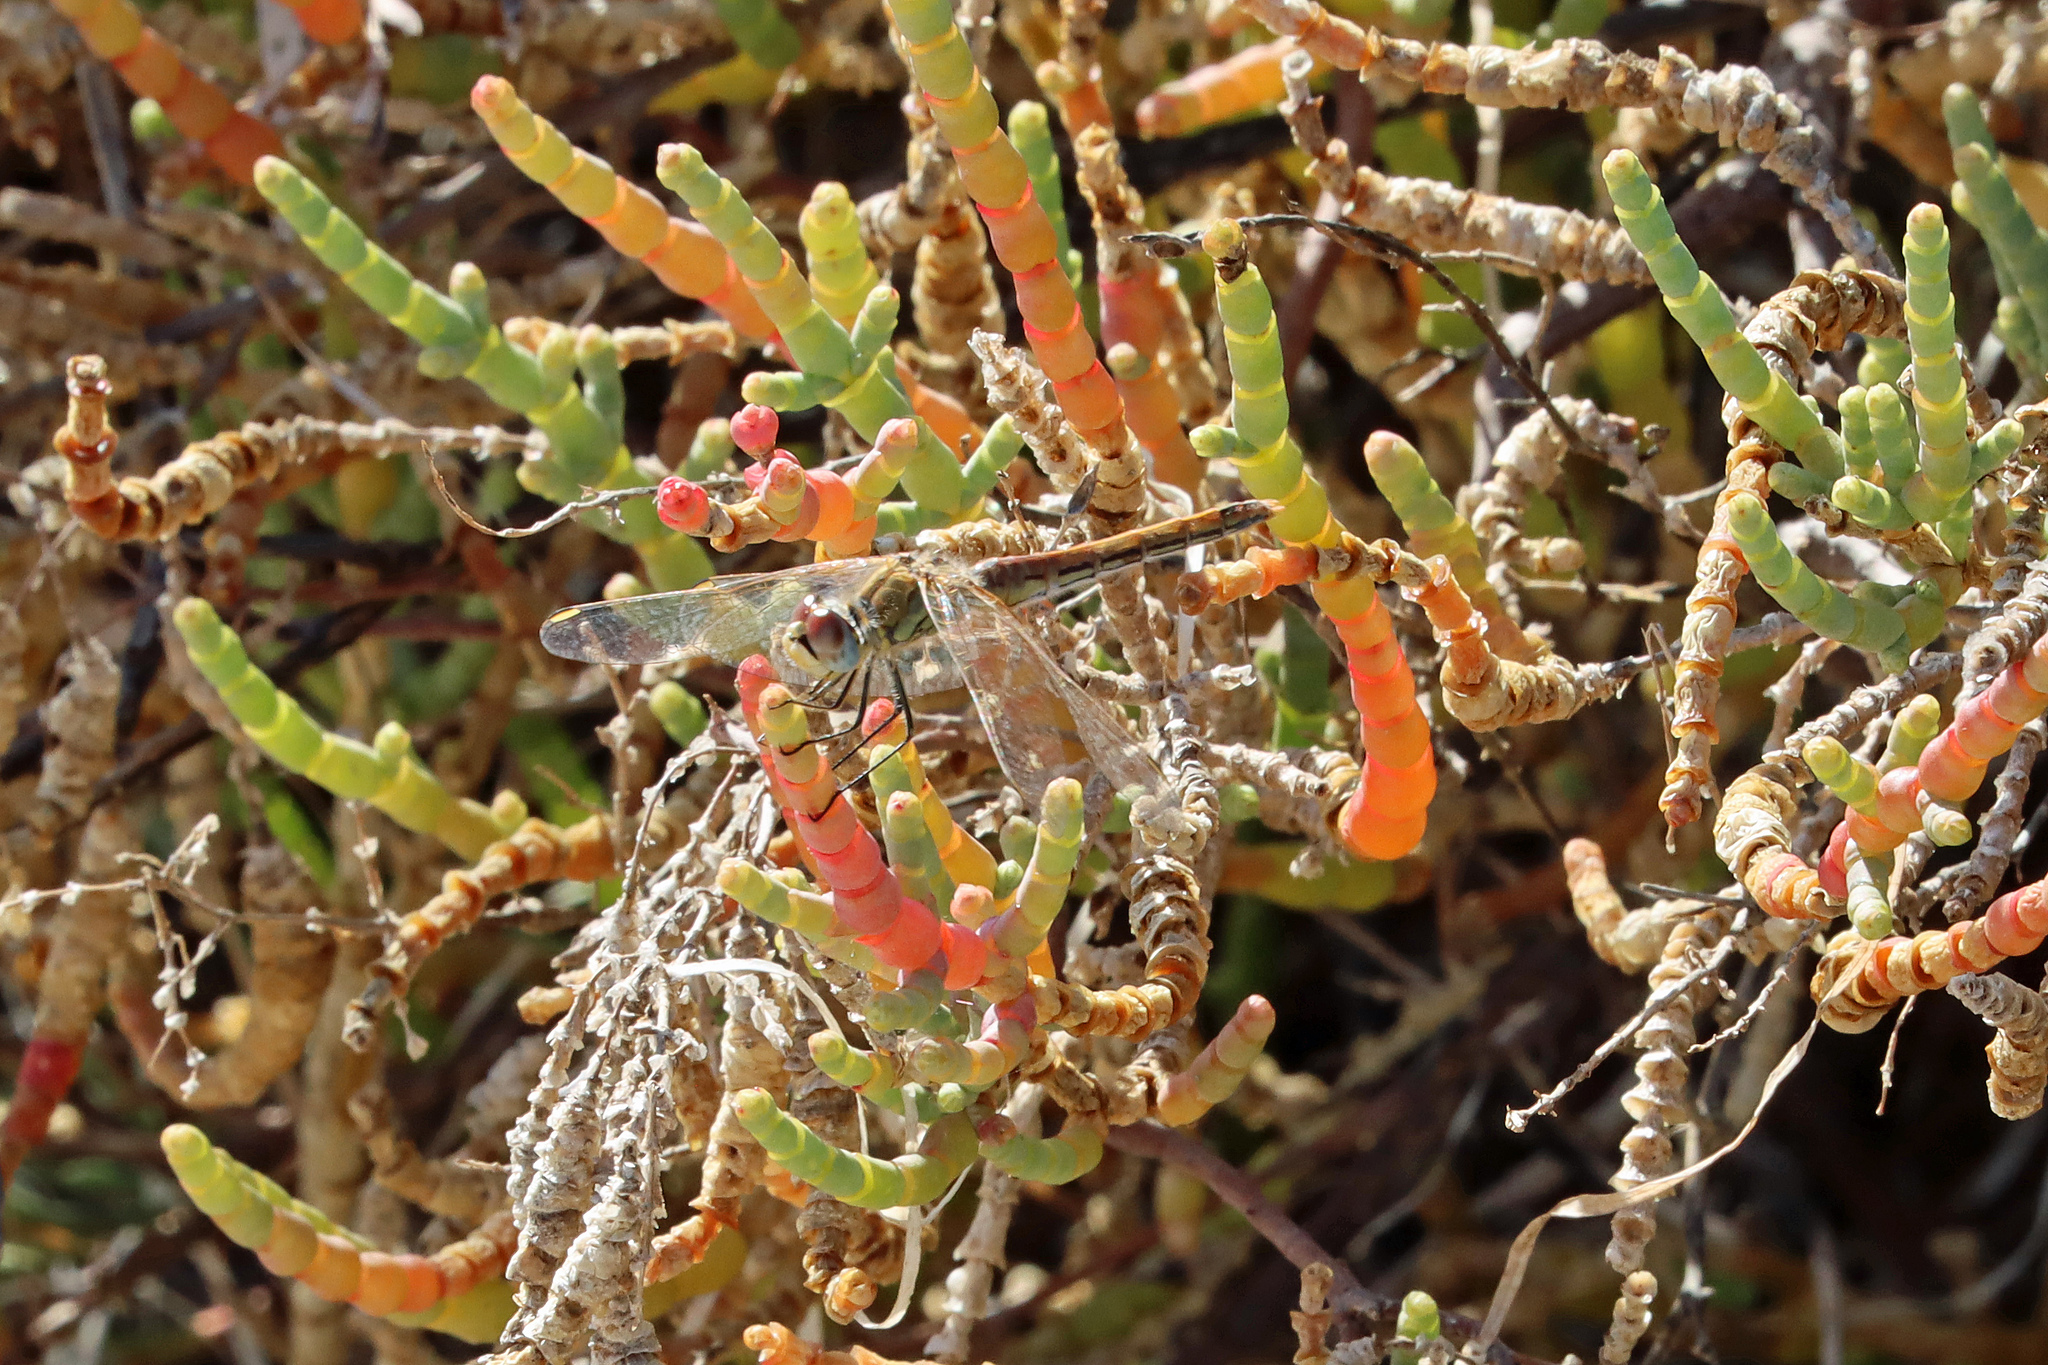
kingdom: Animalia
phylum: Arthropoda
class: Insecta
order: Odonata
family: Libellulidae
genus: Sympetrum
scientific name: Sympetrum fonscolombii
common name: Red-veined darter
